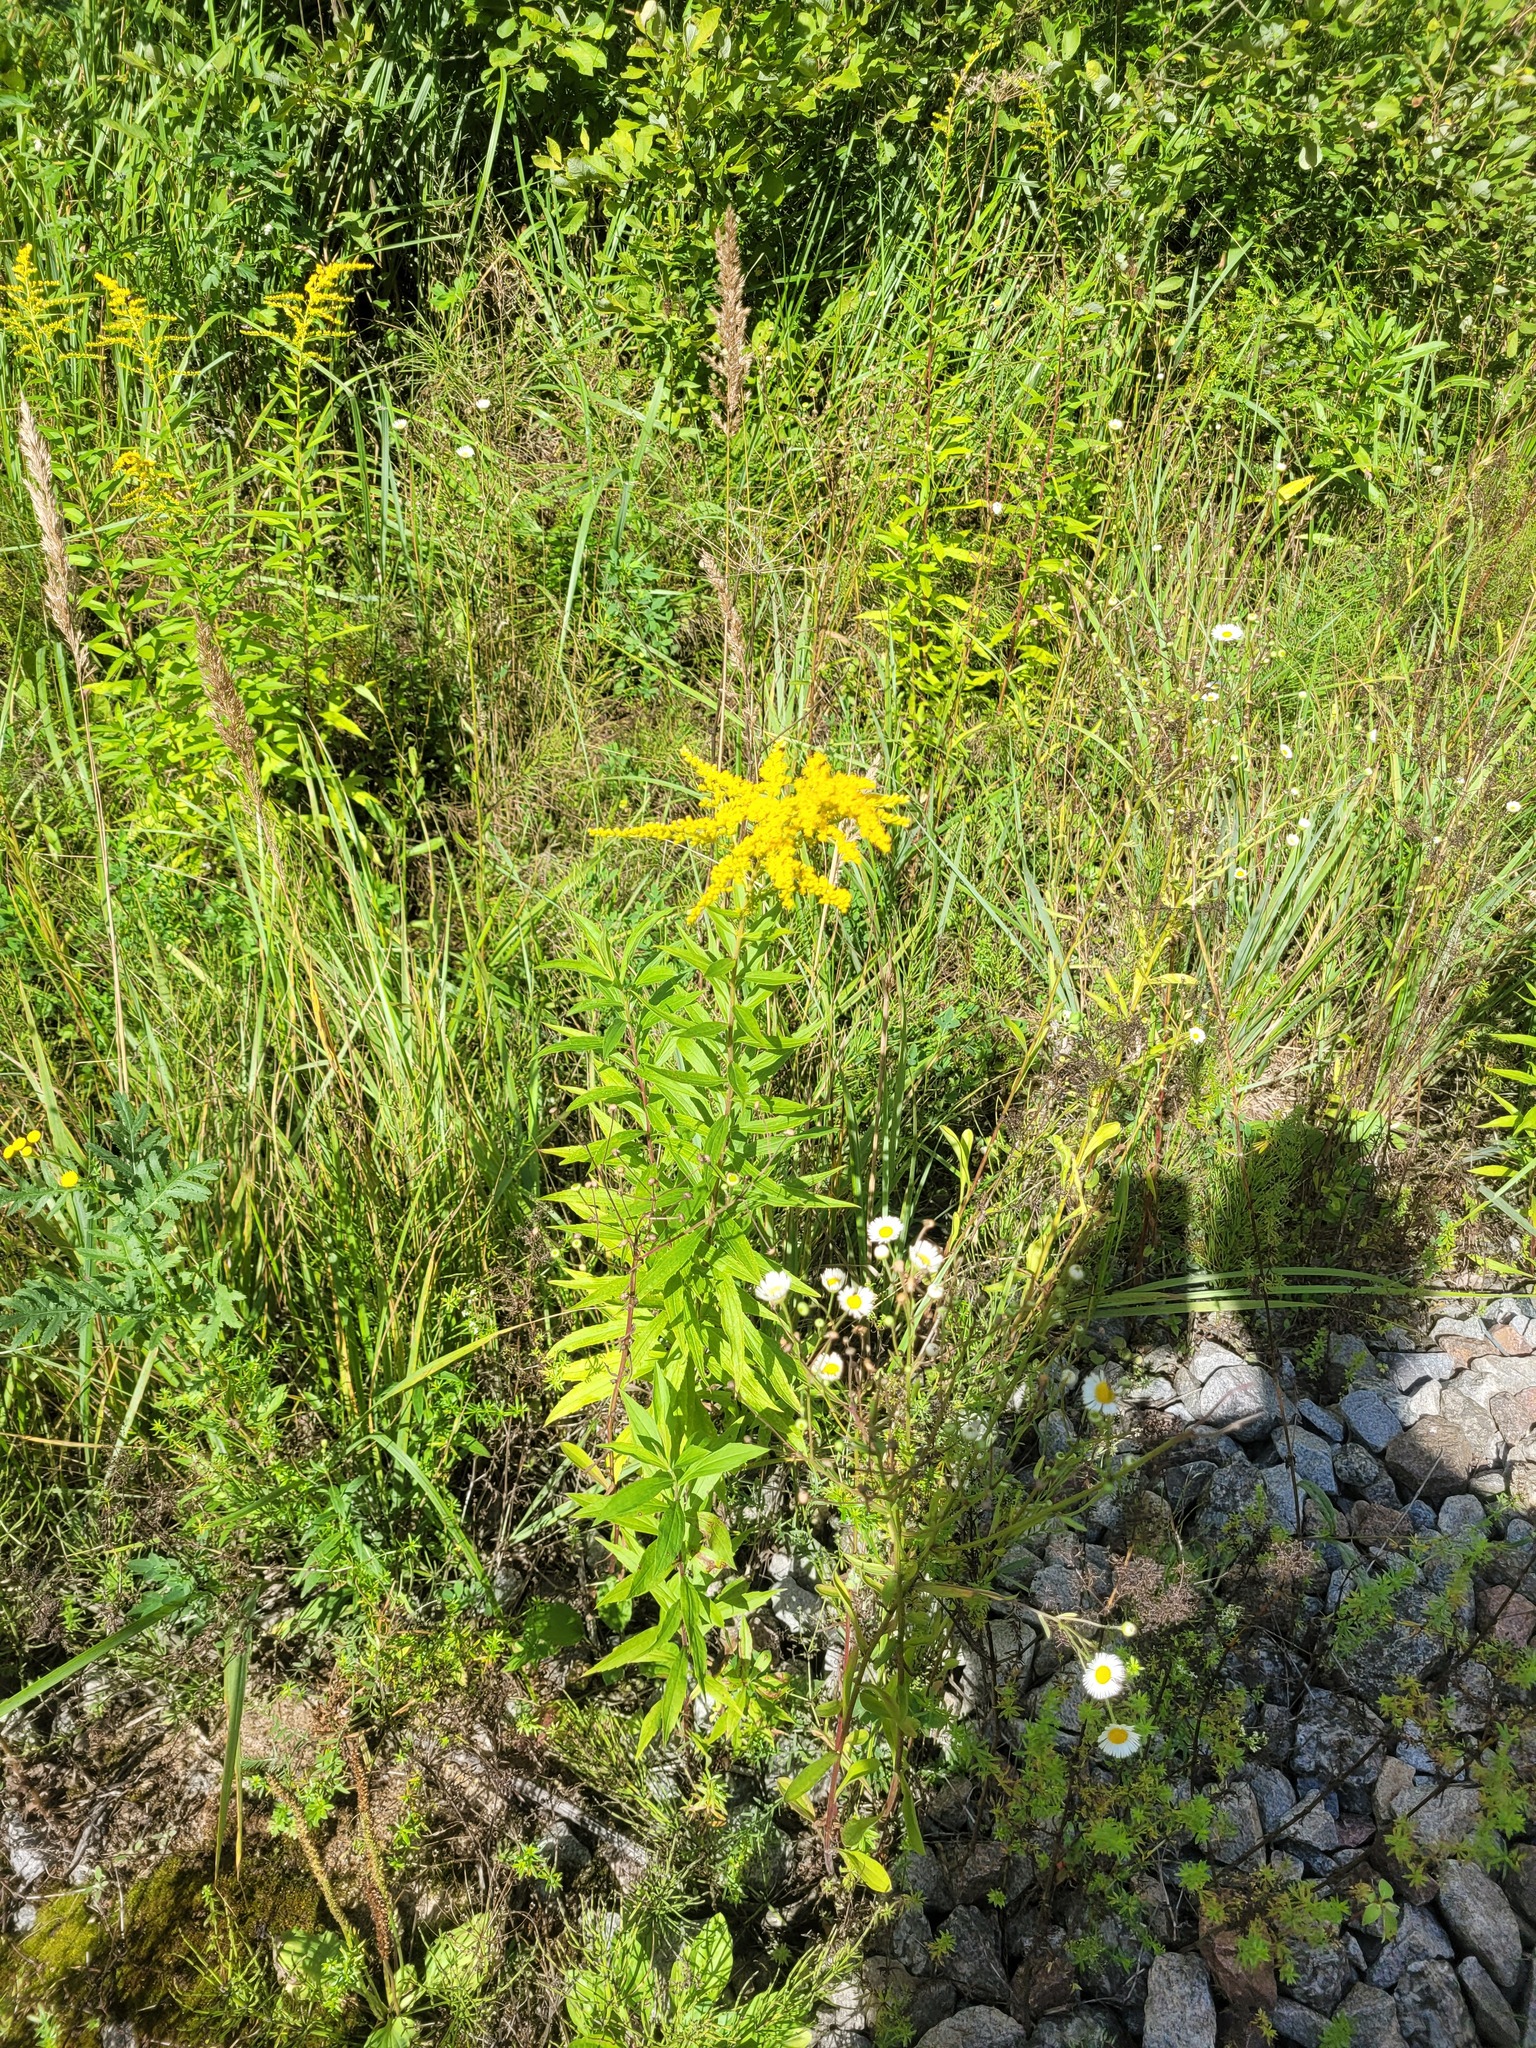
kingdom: Plantae
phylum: Tracheophyta
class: Magnoliopsida
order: Asterales
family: Asteraceae
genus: Solidago
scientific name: Solidago canadensis
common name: Canada goldenrod
